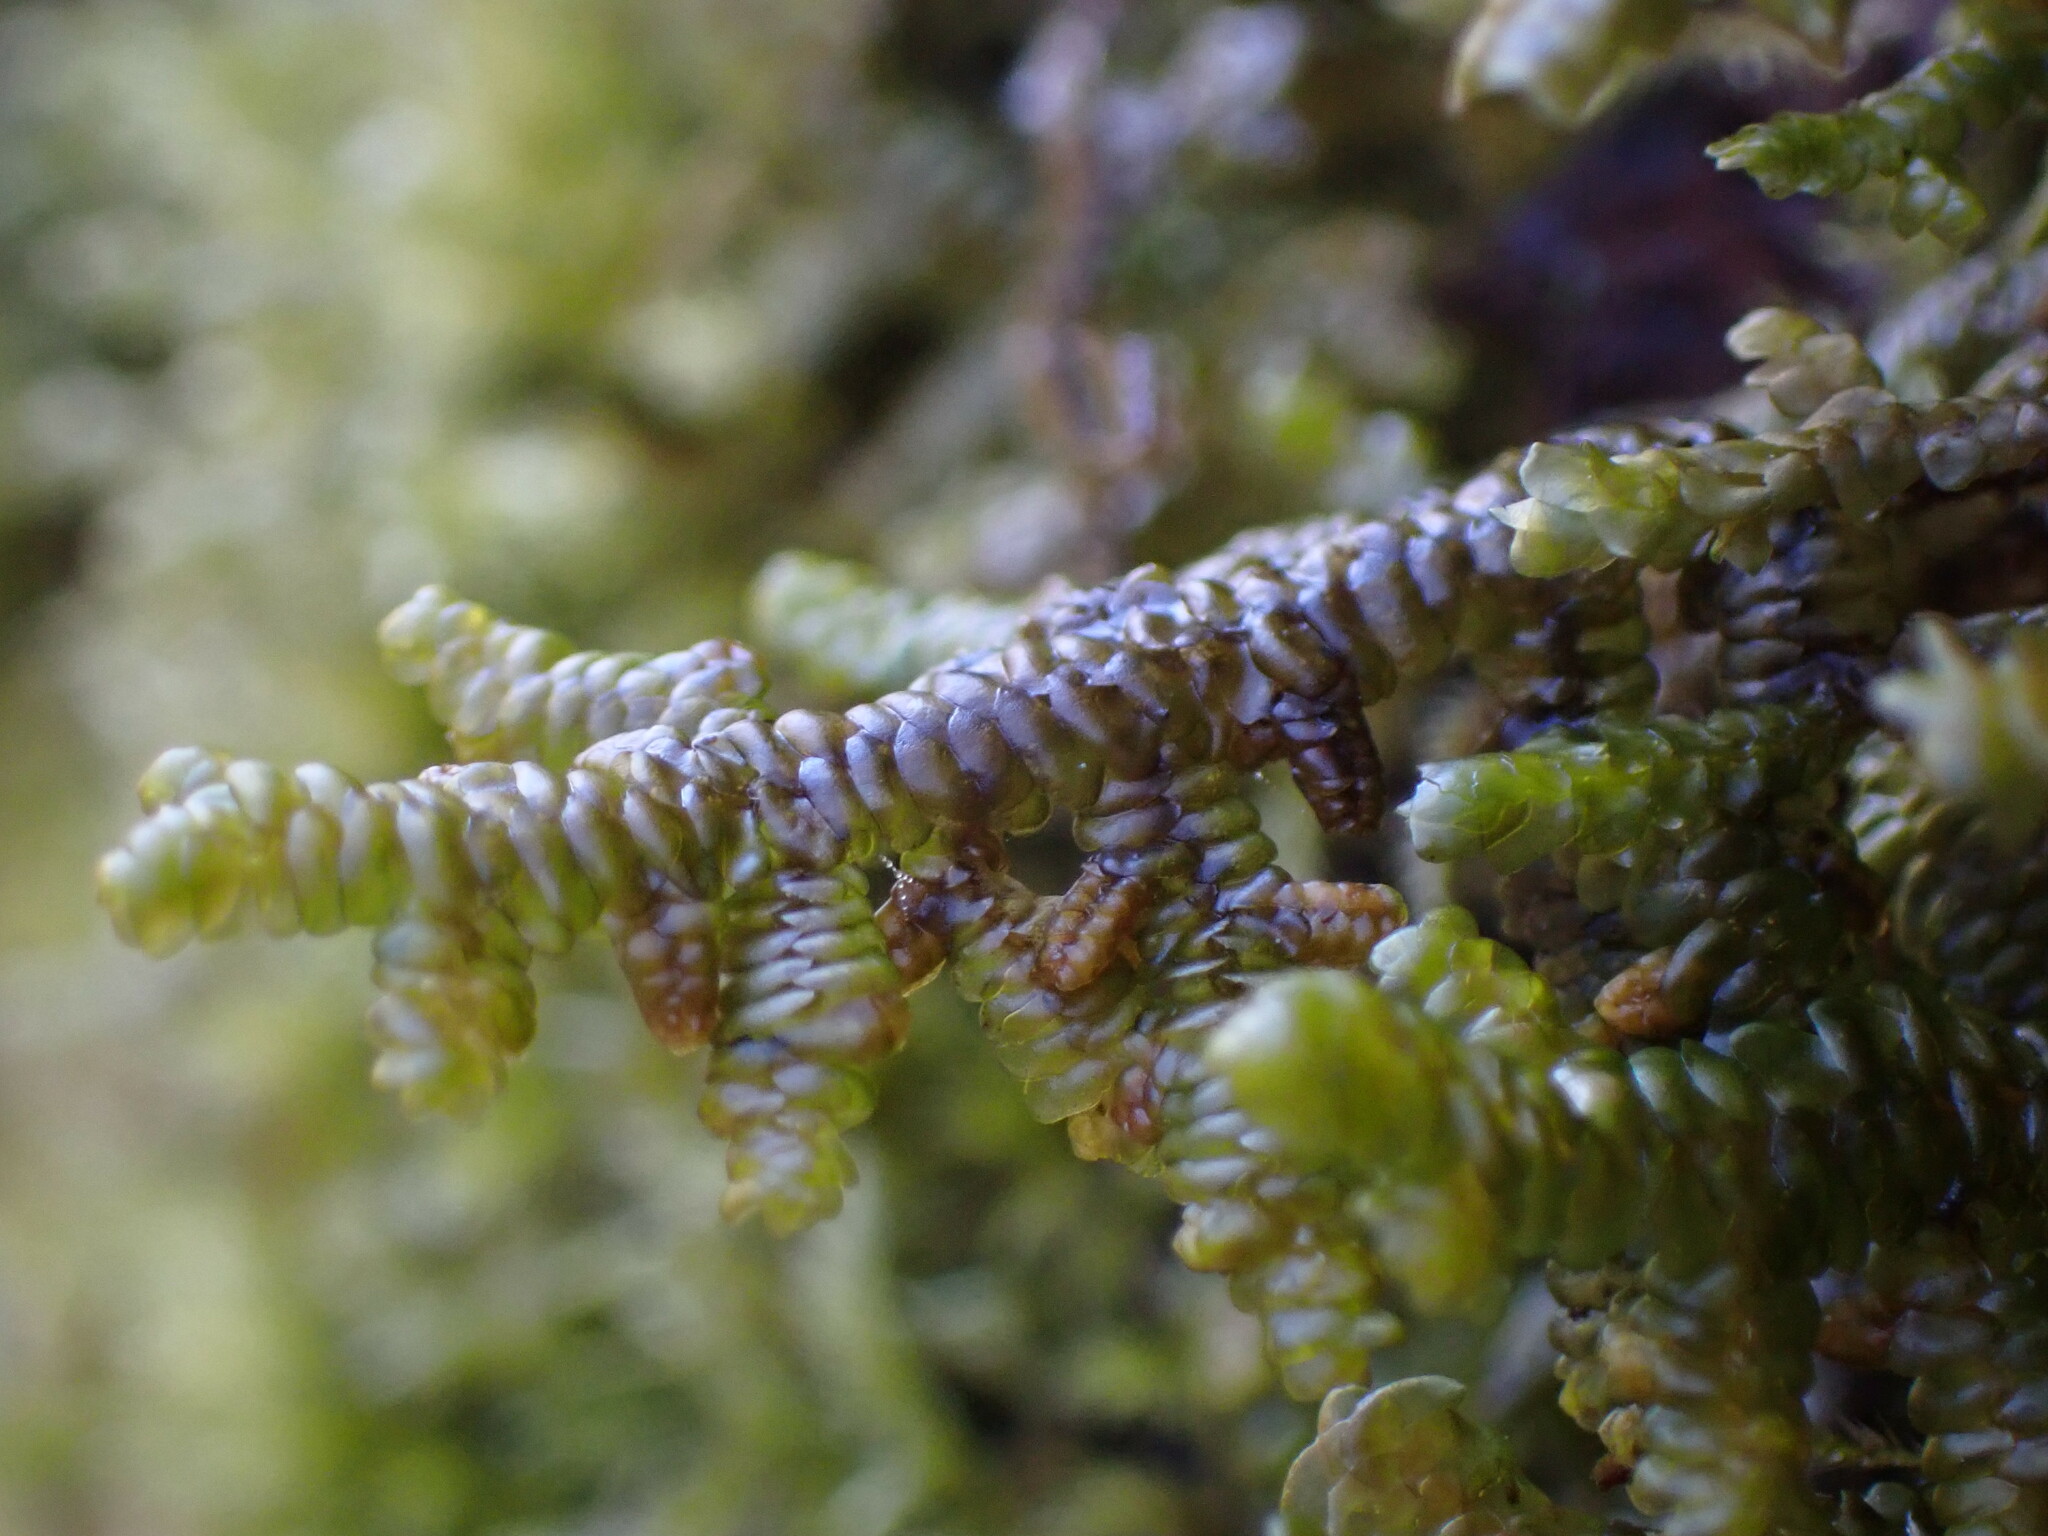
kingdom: Plantae
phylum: Marchantiophyta
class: Jungermanniopsida
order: Porellales
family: Porellaceae
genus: Porella
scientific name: Porella navicularis
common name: Tree ruffle liverwort
